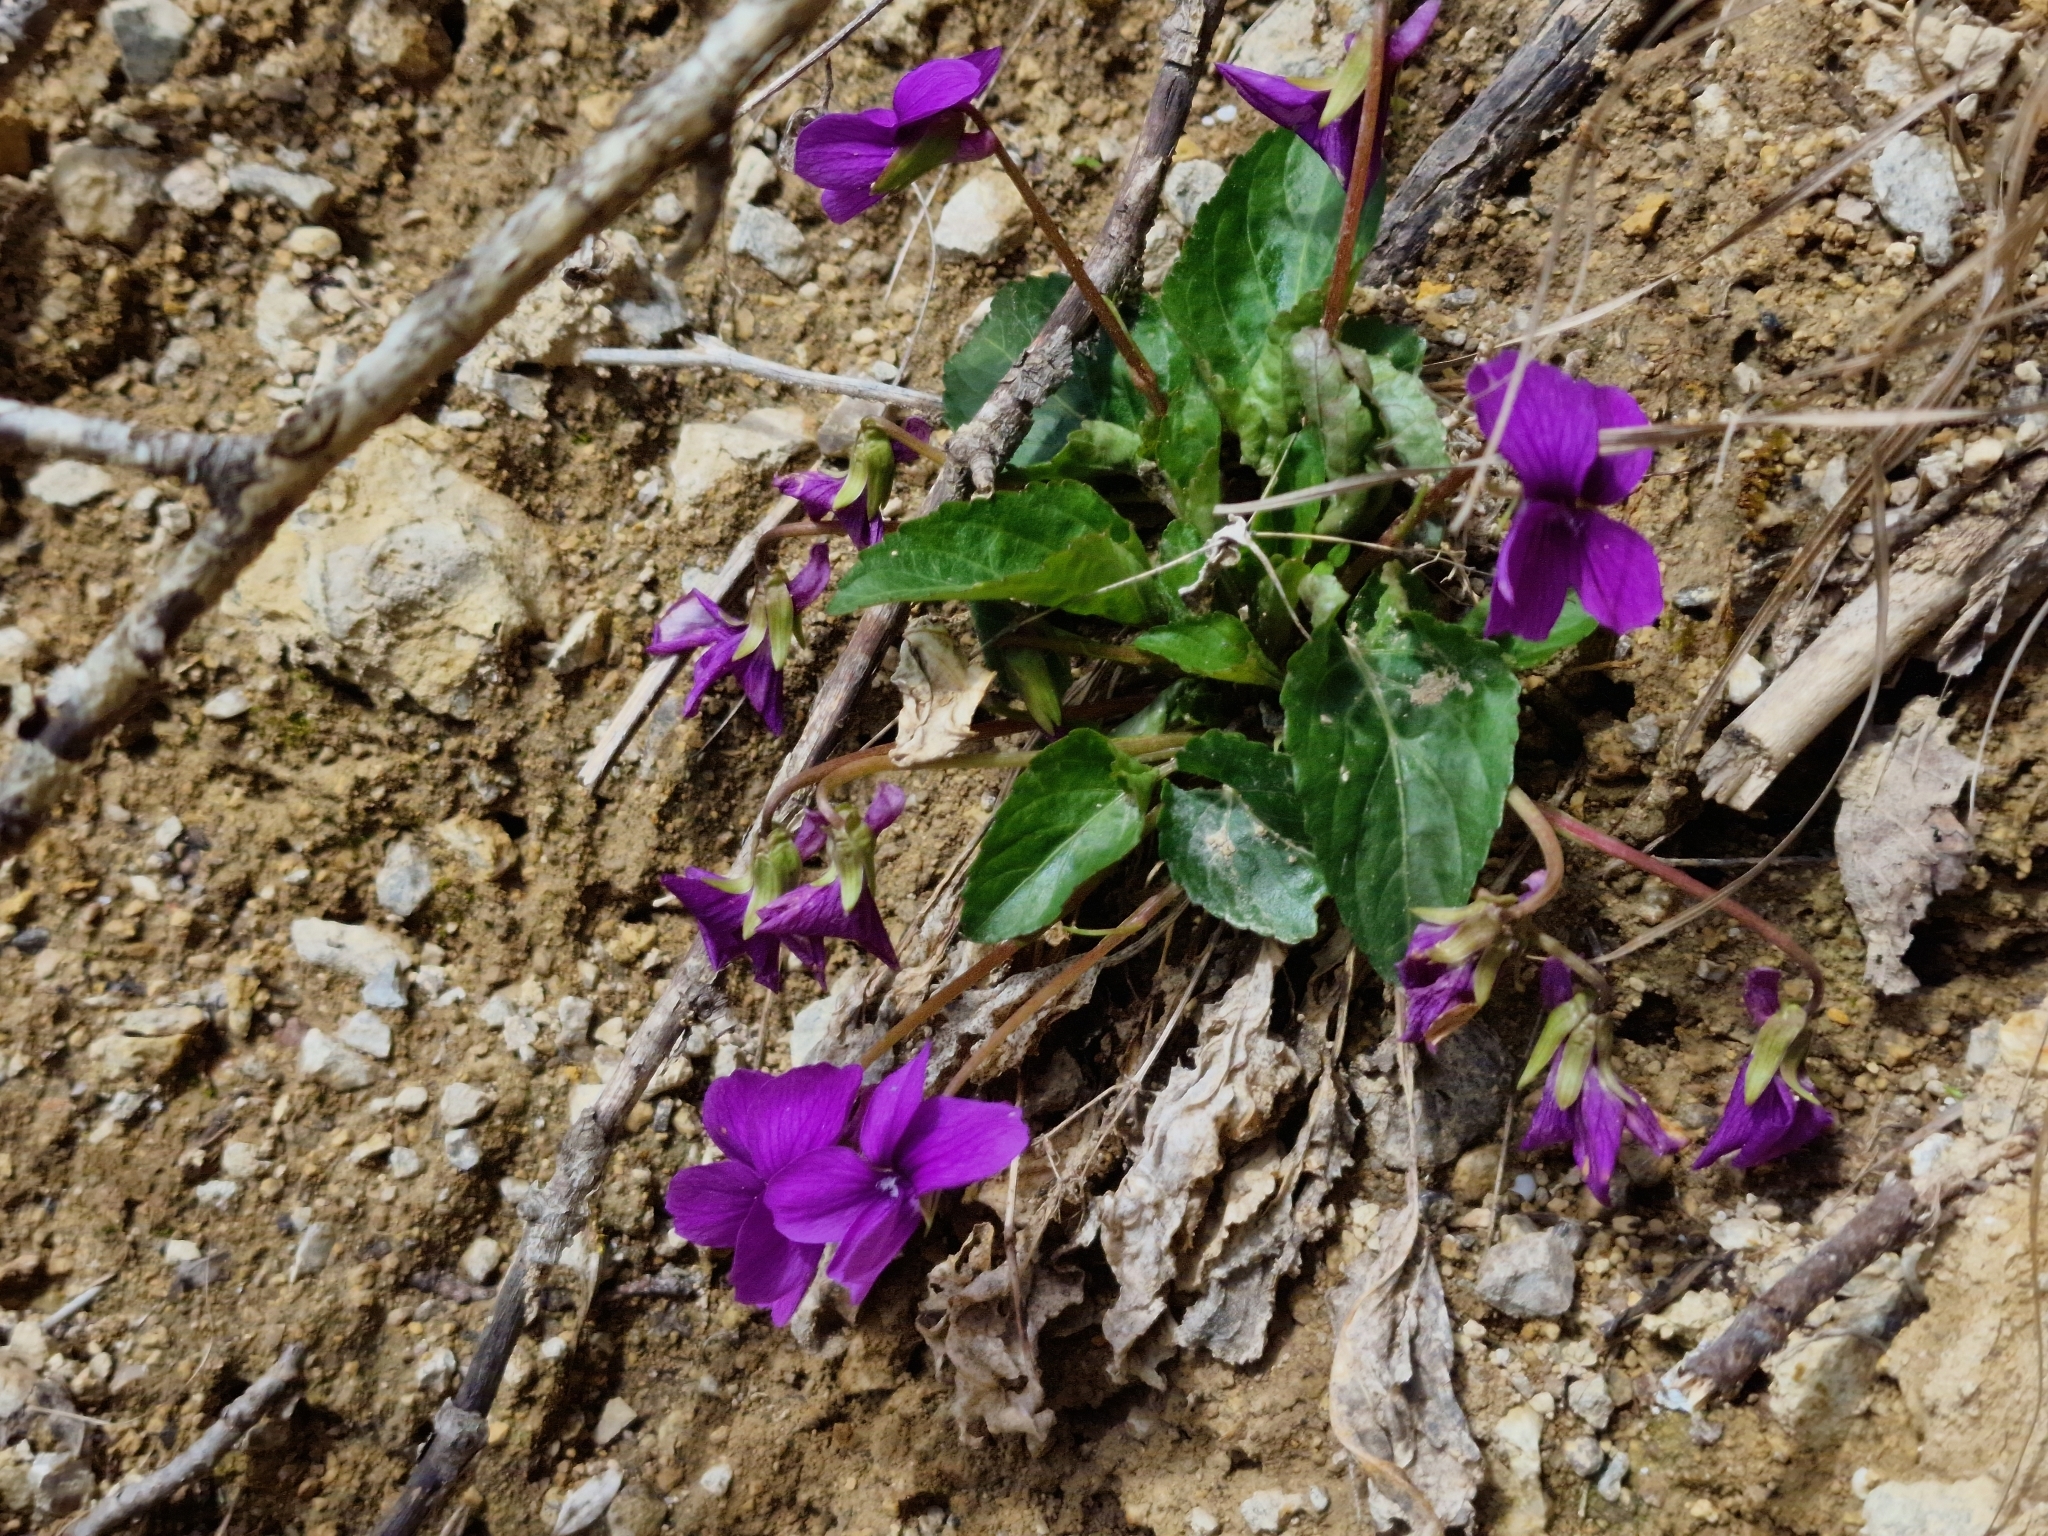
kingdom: Plantae
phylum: Tracheophyta
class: Magnoliopsida
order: Malpighiales
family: Violaceae
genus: Viola
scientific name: Viola
